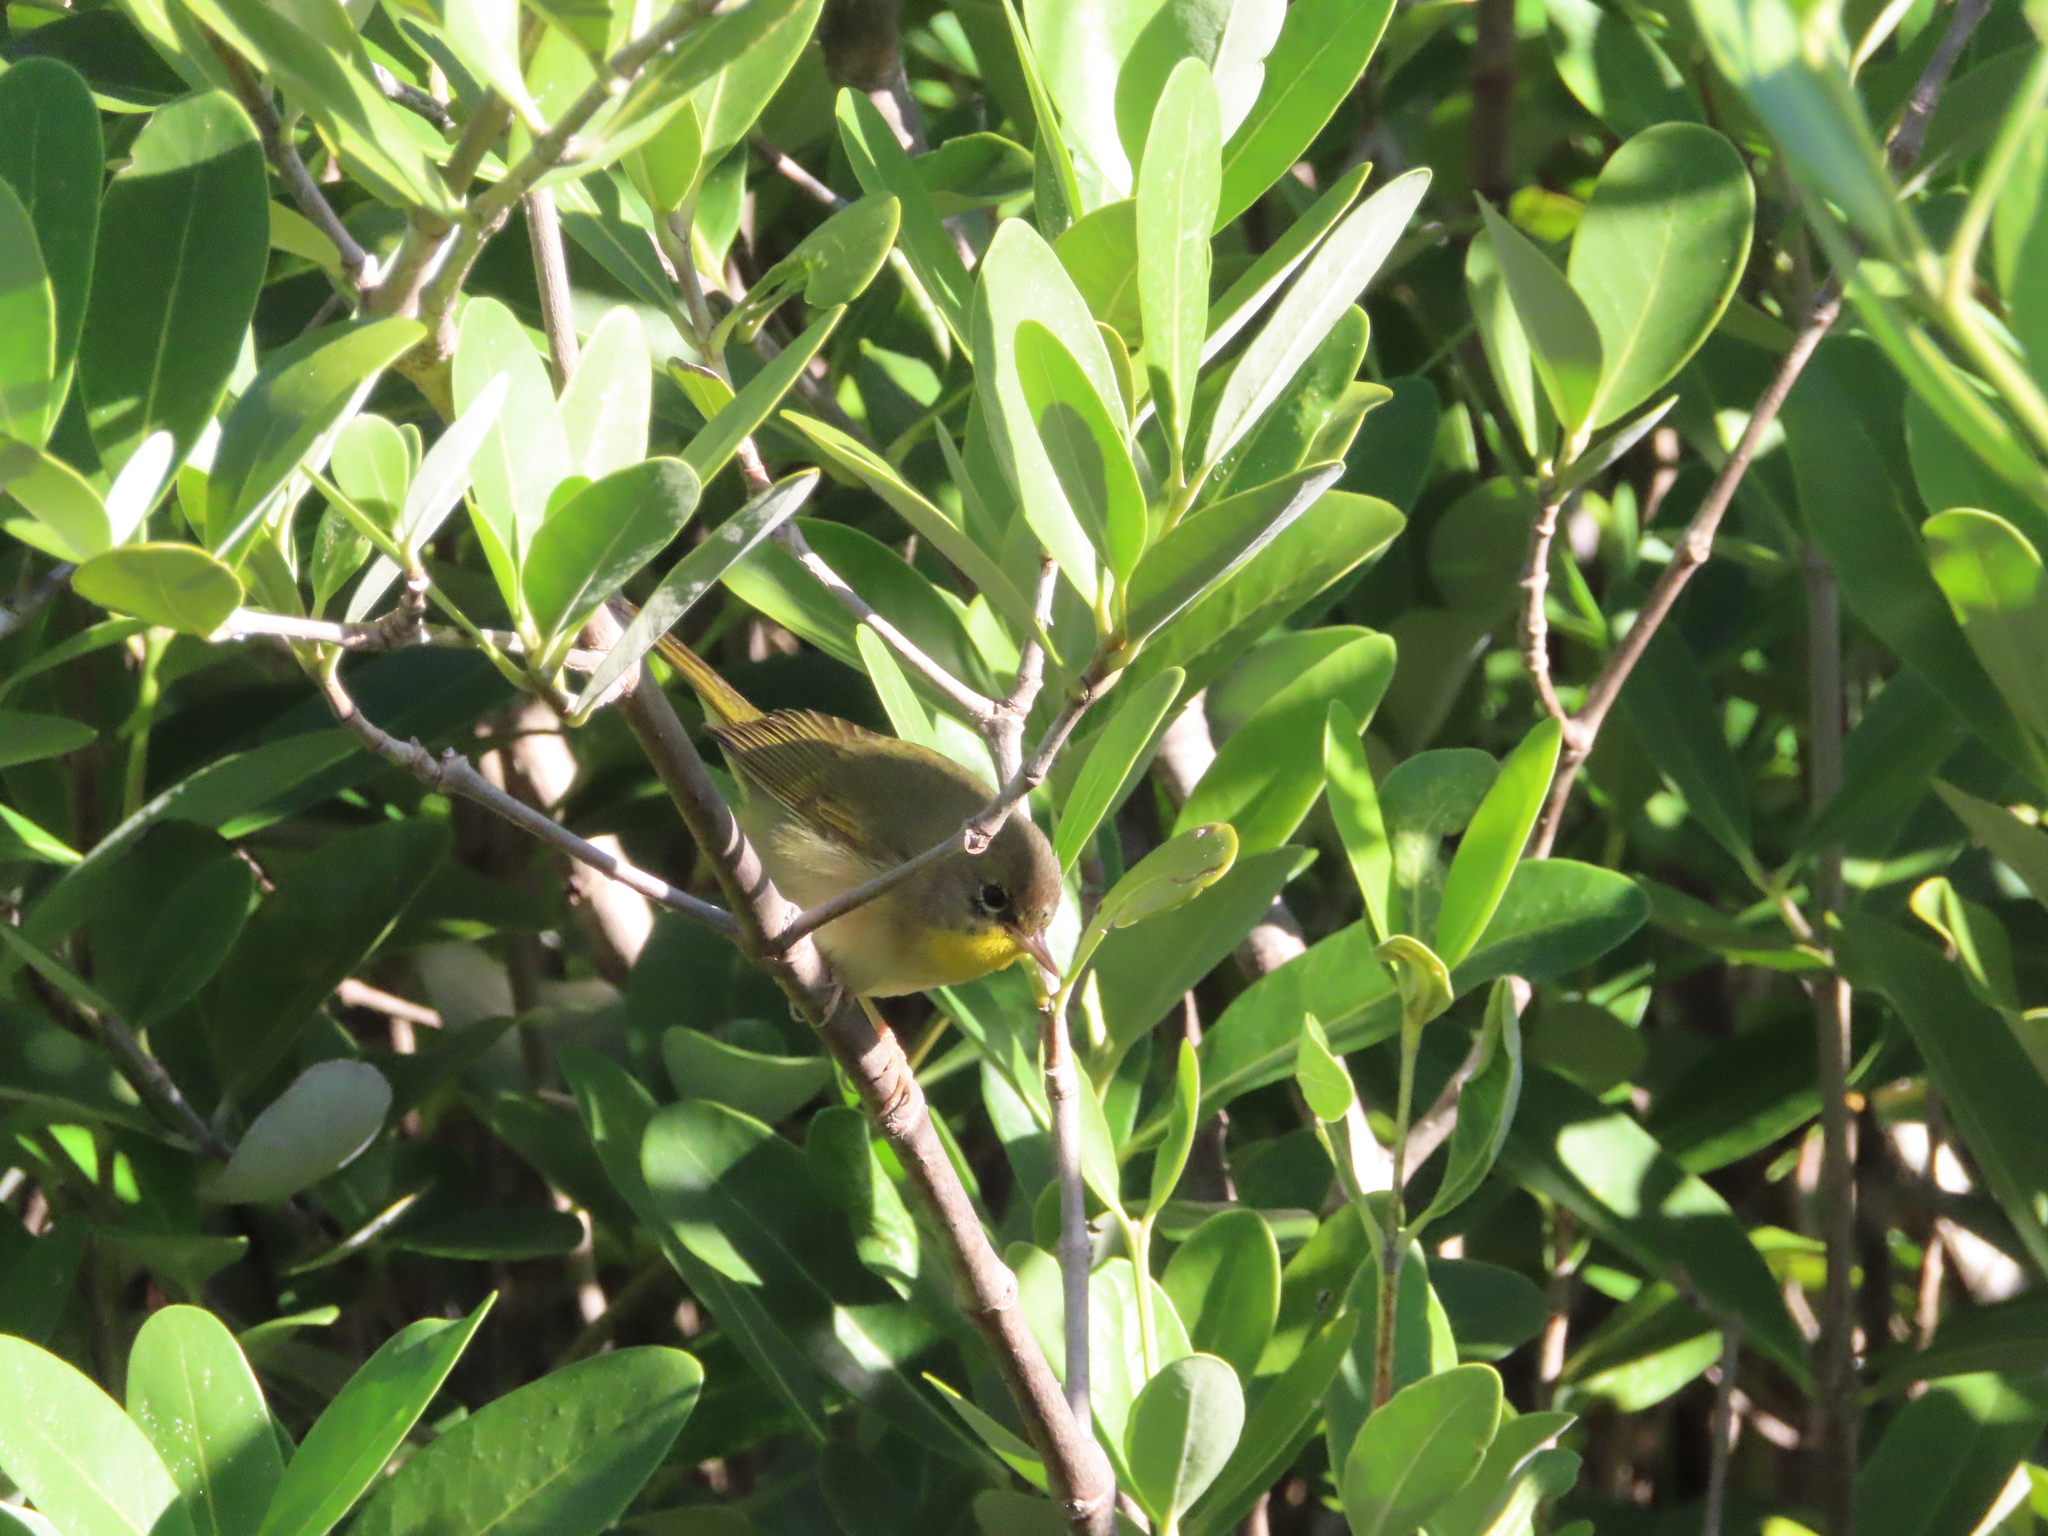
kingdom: Animalia
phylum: Chordata
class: Aves
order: Passeriformes
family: Parulidae
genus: Geothlypis
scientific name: Geothlypis trichas
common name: Common yellowthroat
